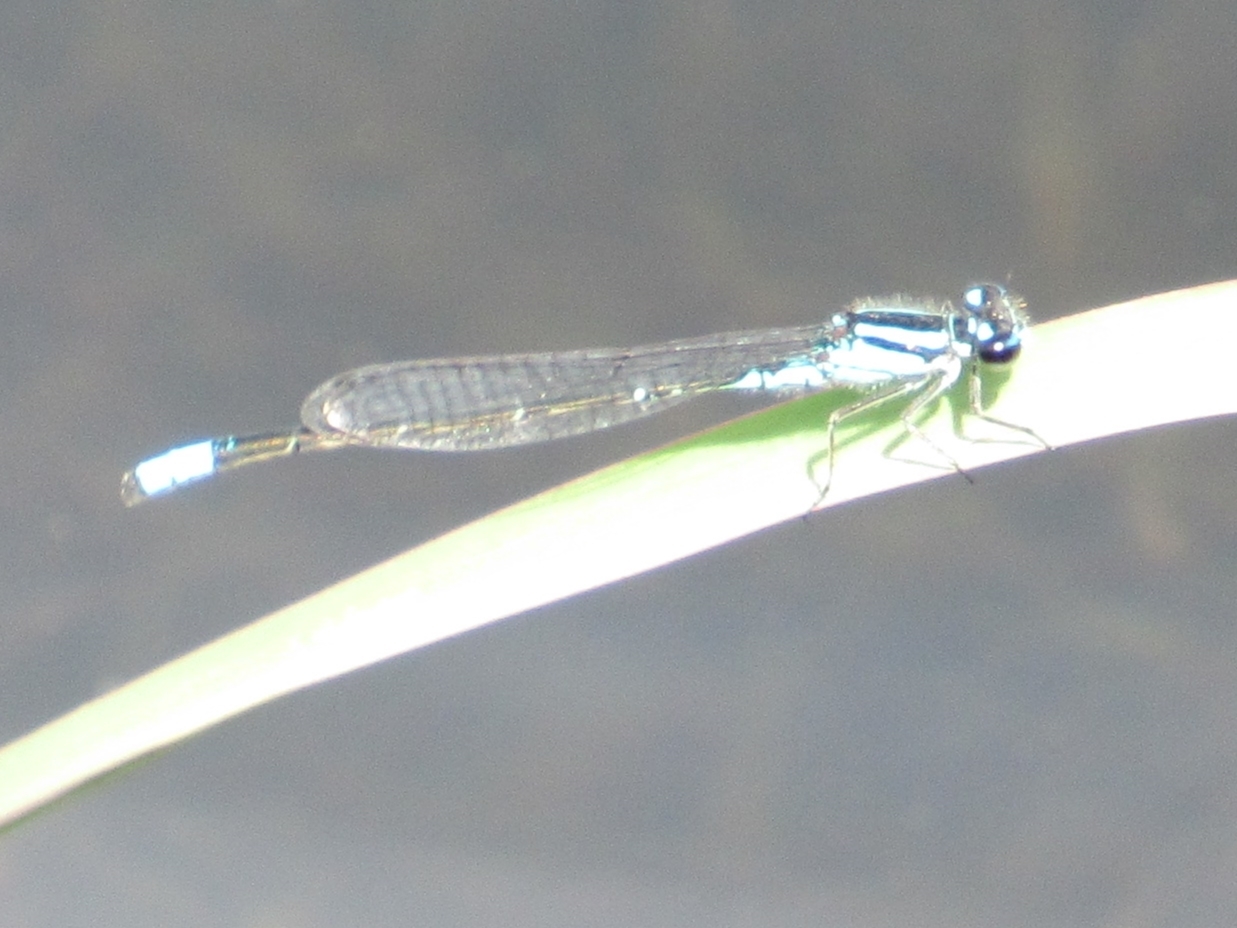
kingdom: Animalia
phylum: Arthropoda
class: Insecta
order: Odonata
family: Coenagrionidae
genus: Enallagma
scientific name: Enallagma geminatum
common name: Skimming bluet
